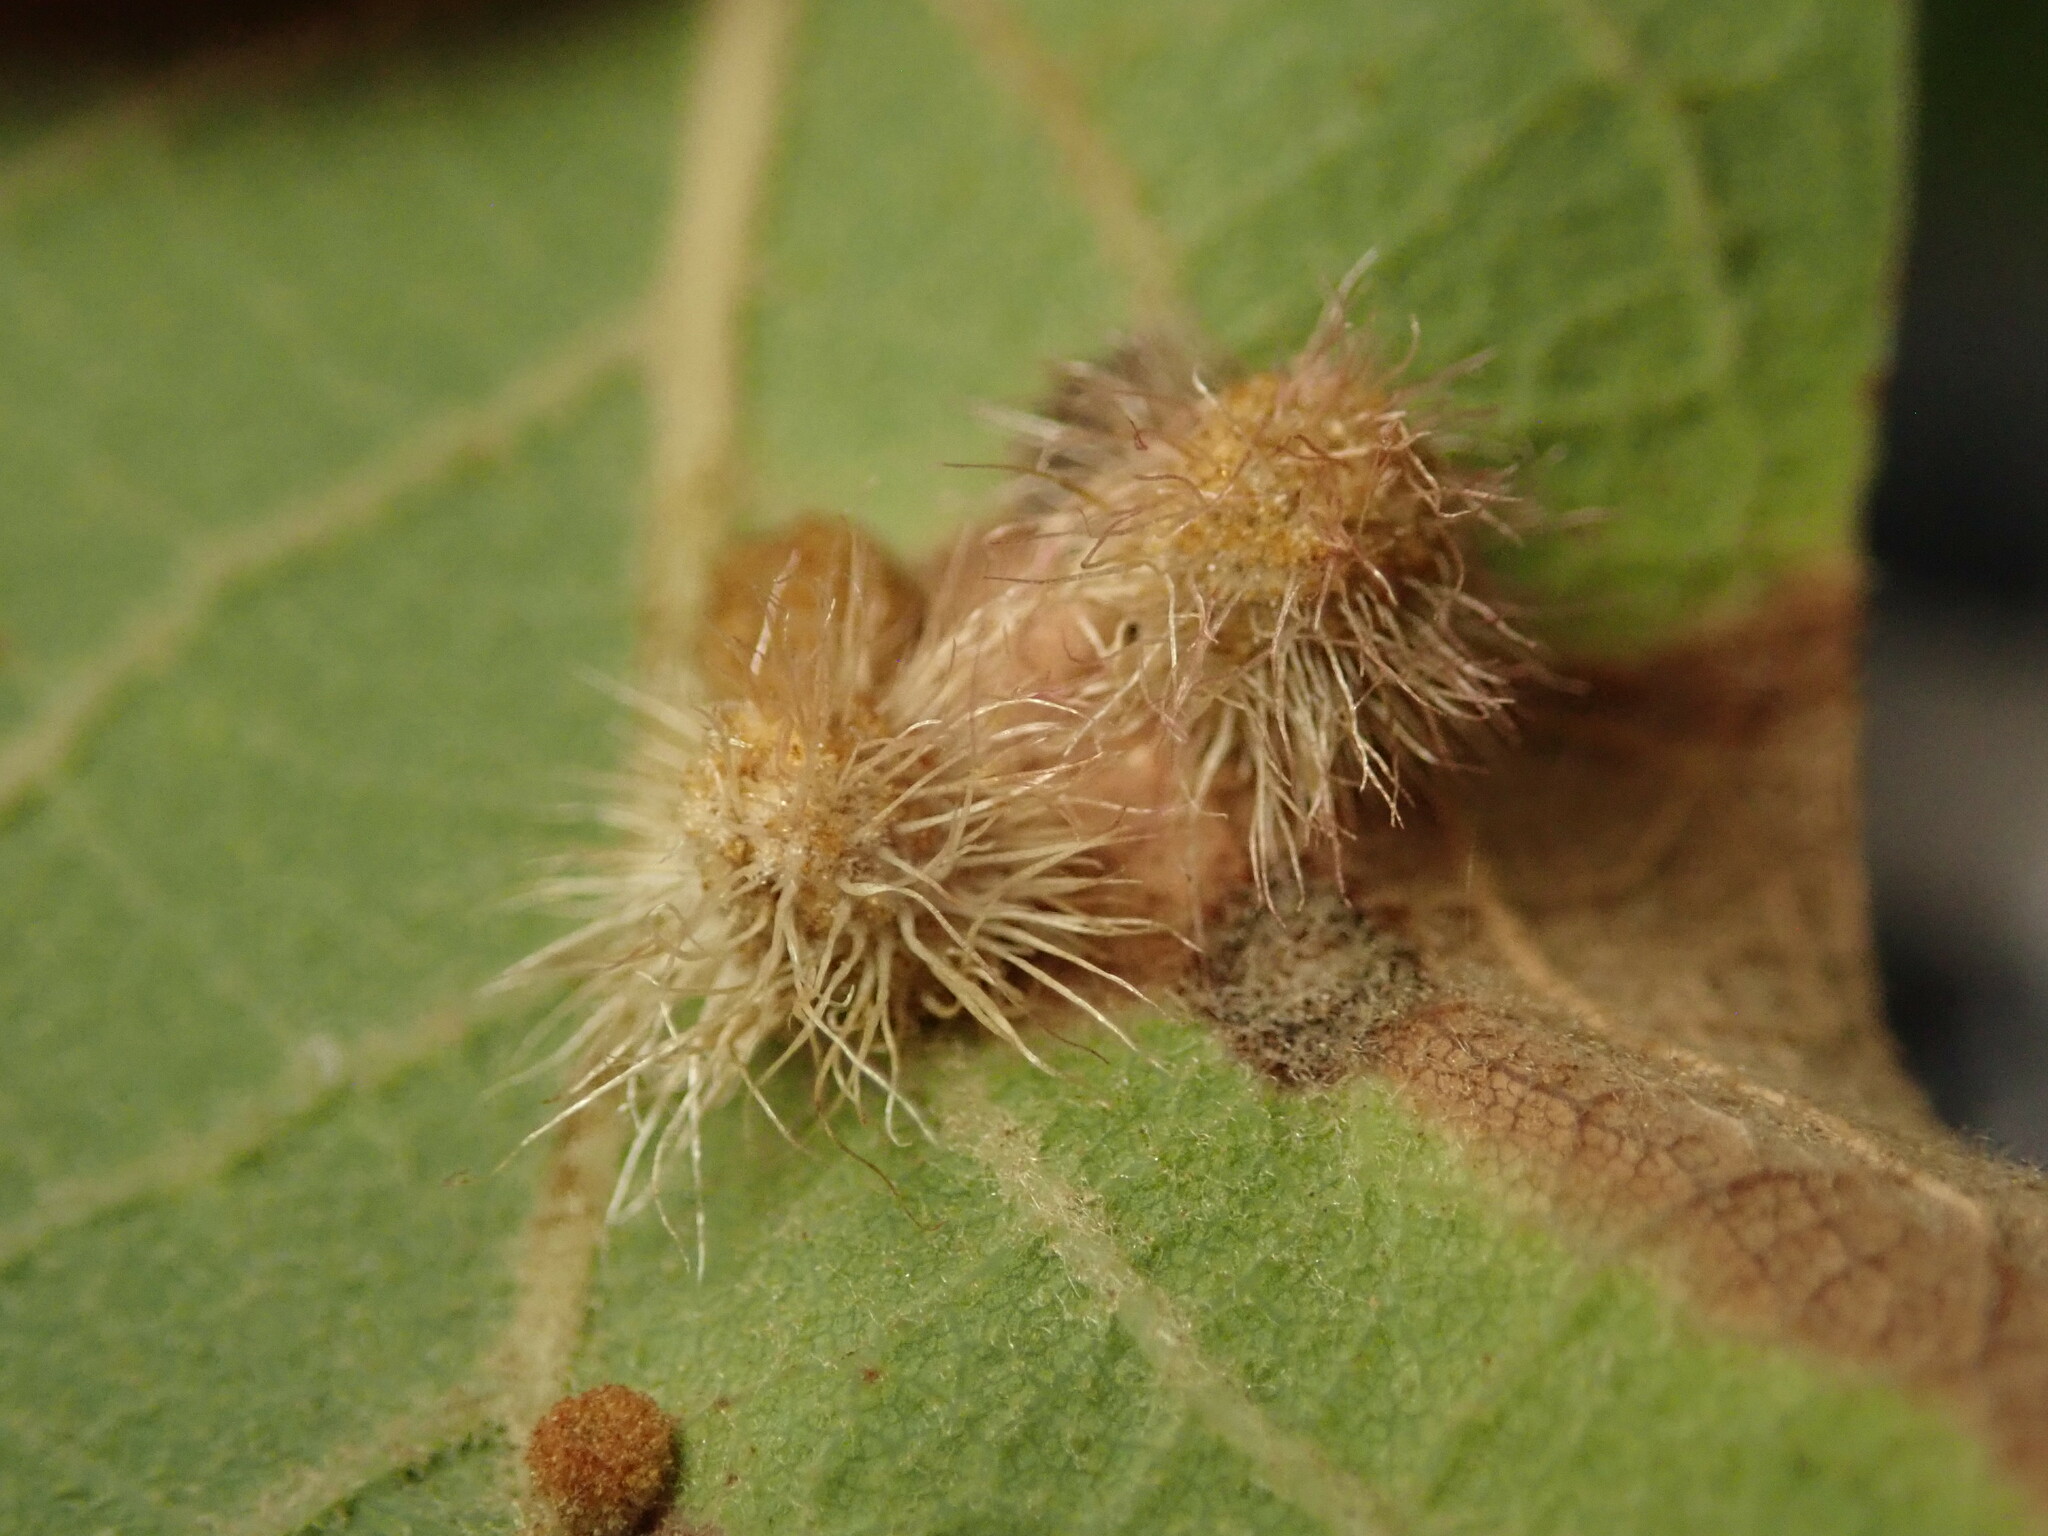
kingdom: Animalia
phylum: Arthropoda
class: Insecta
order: Hymenoptera
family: Cynipidae
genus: Andricus
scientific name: Andricus
